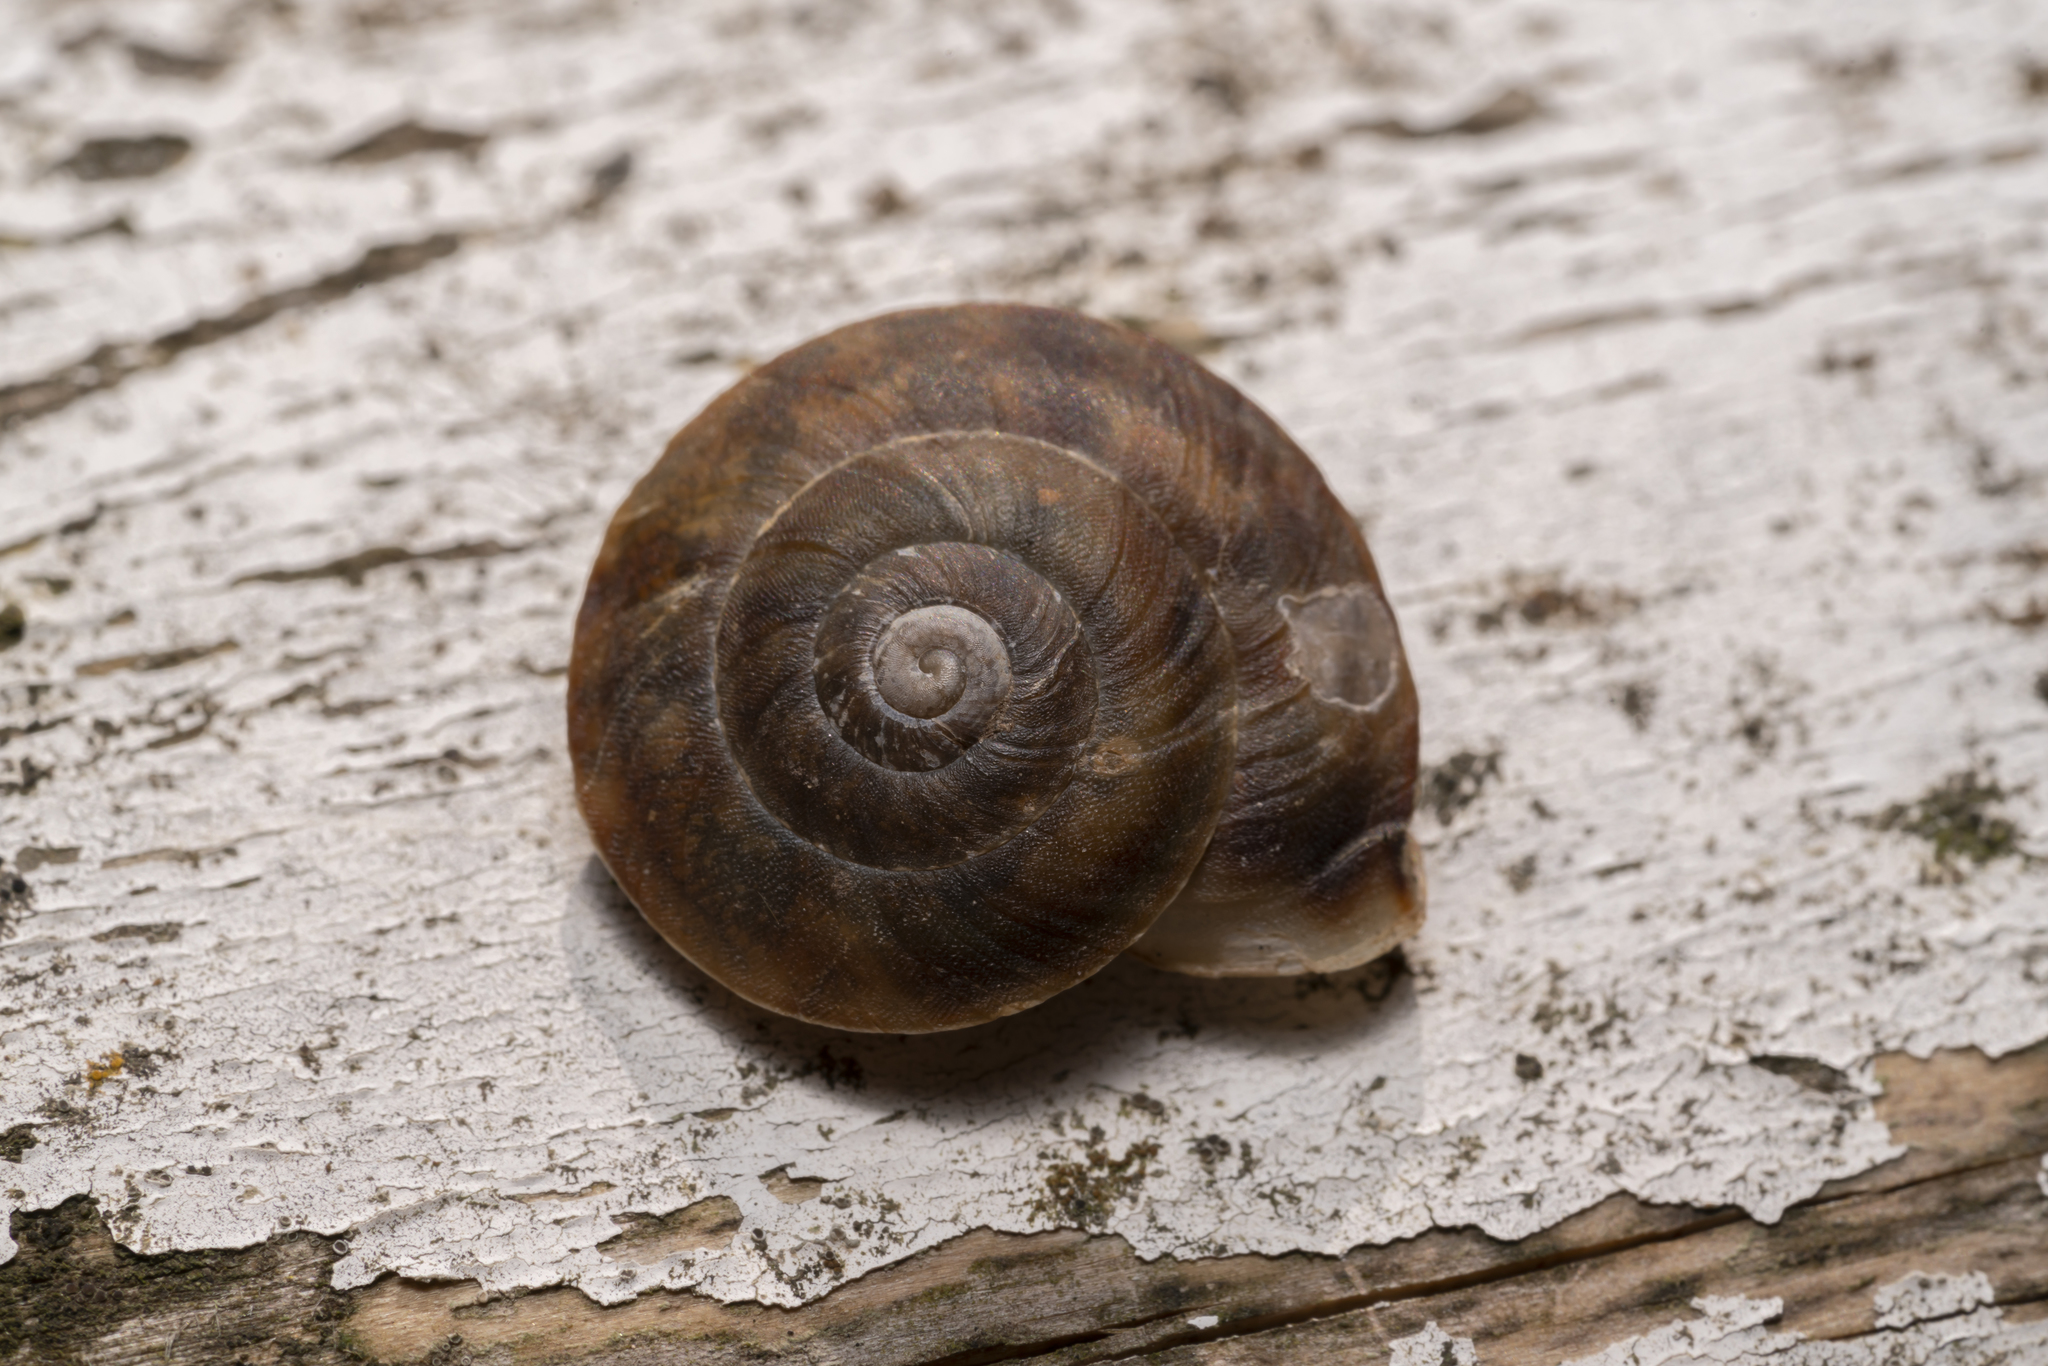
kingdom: Animalia
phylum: Mollusca
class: Gastropoda
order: Stylommatophora
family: Helicidae
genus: Helicigona
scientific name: Helicigona lapicida
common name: Lapidary snail
